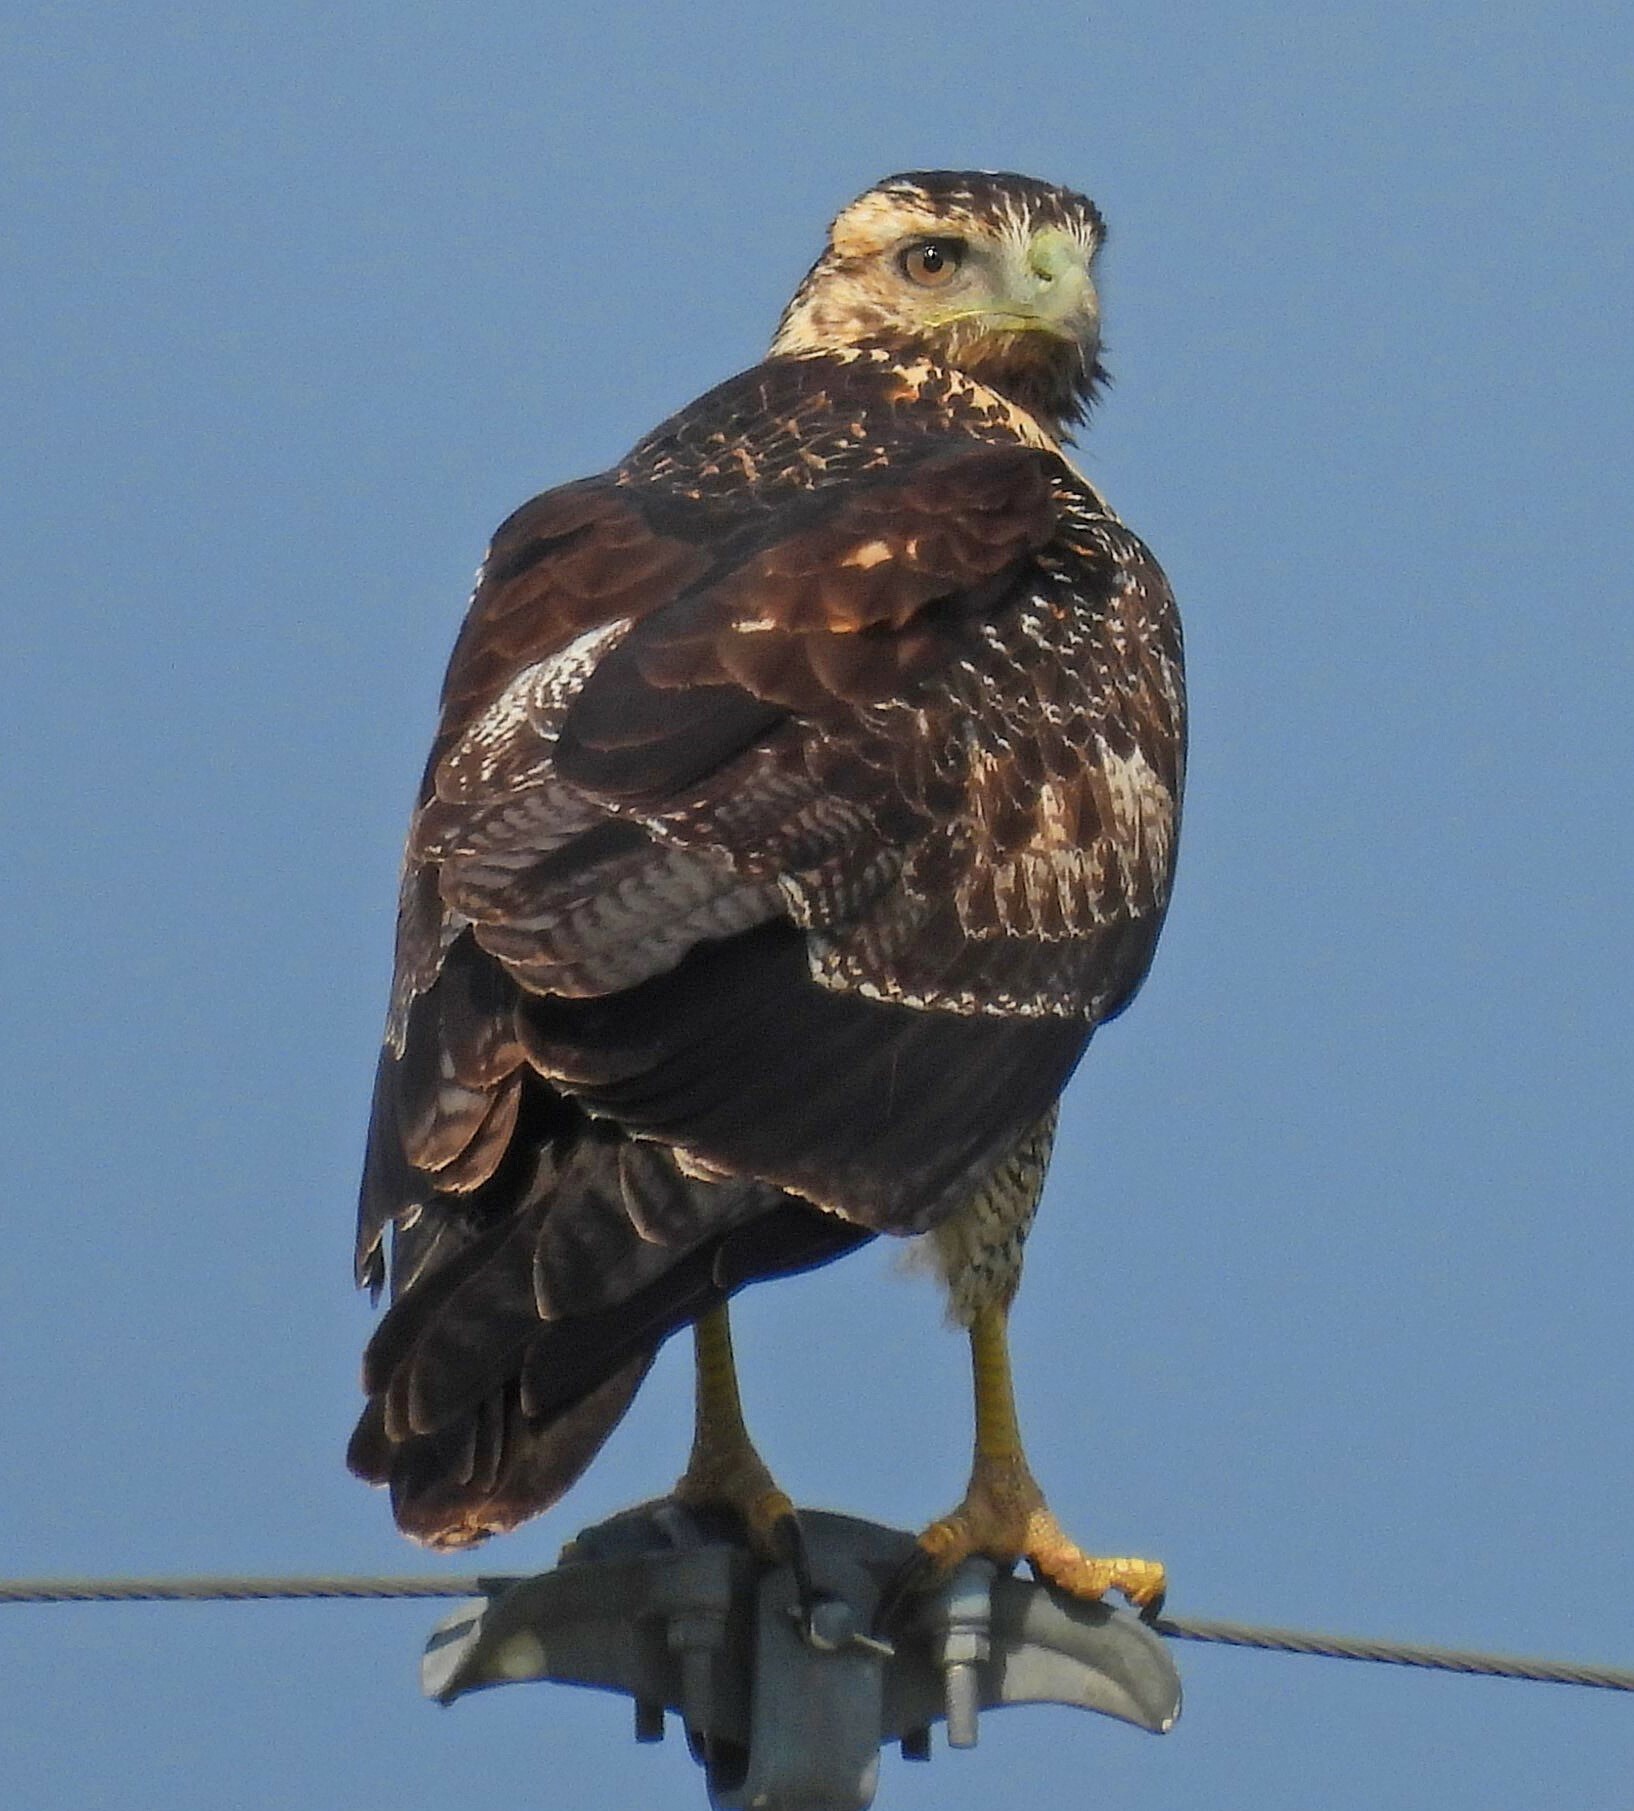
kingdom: Animalia
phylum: Chordata
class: Aves
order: Accipitriformes
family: Accipitridae
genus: Geranoaetus
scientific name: Geranoaetus melanoleucus
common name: Black-chested buzzard-eagle
